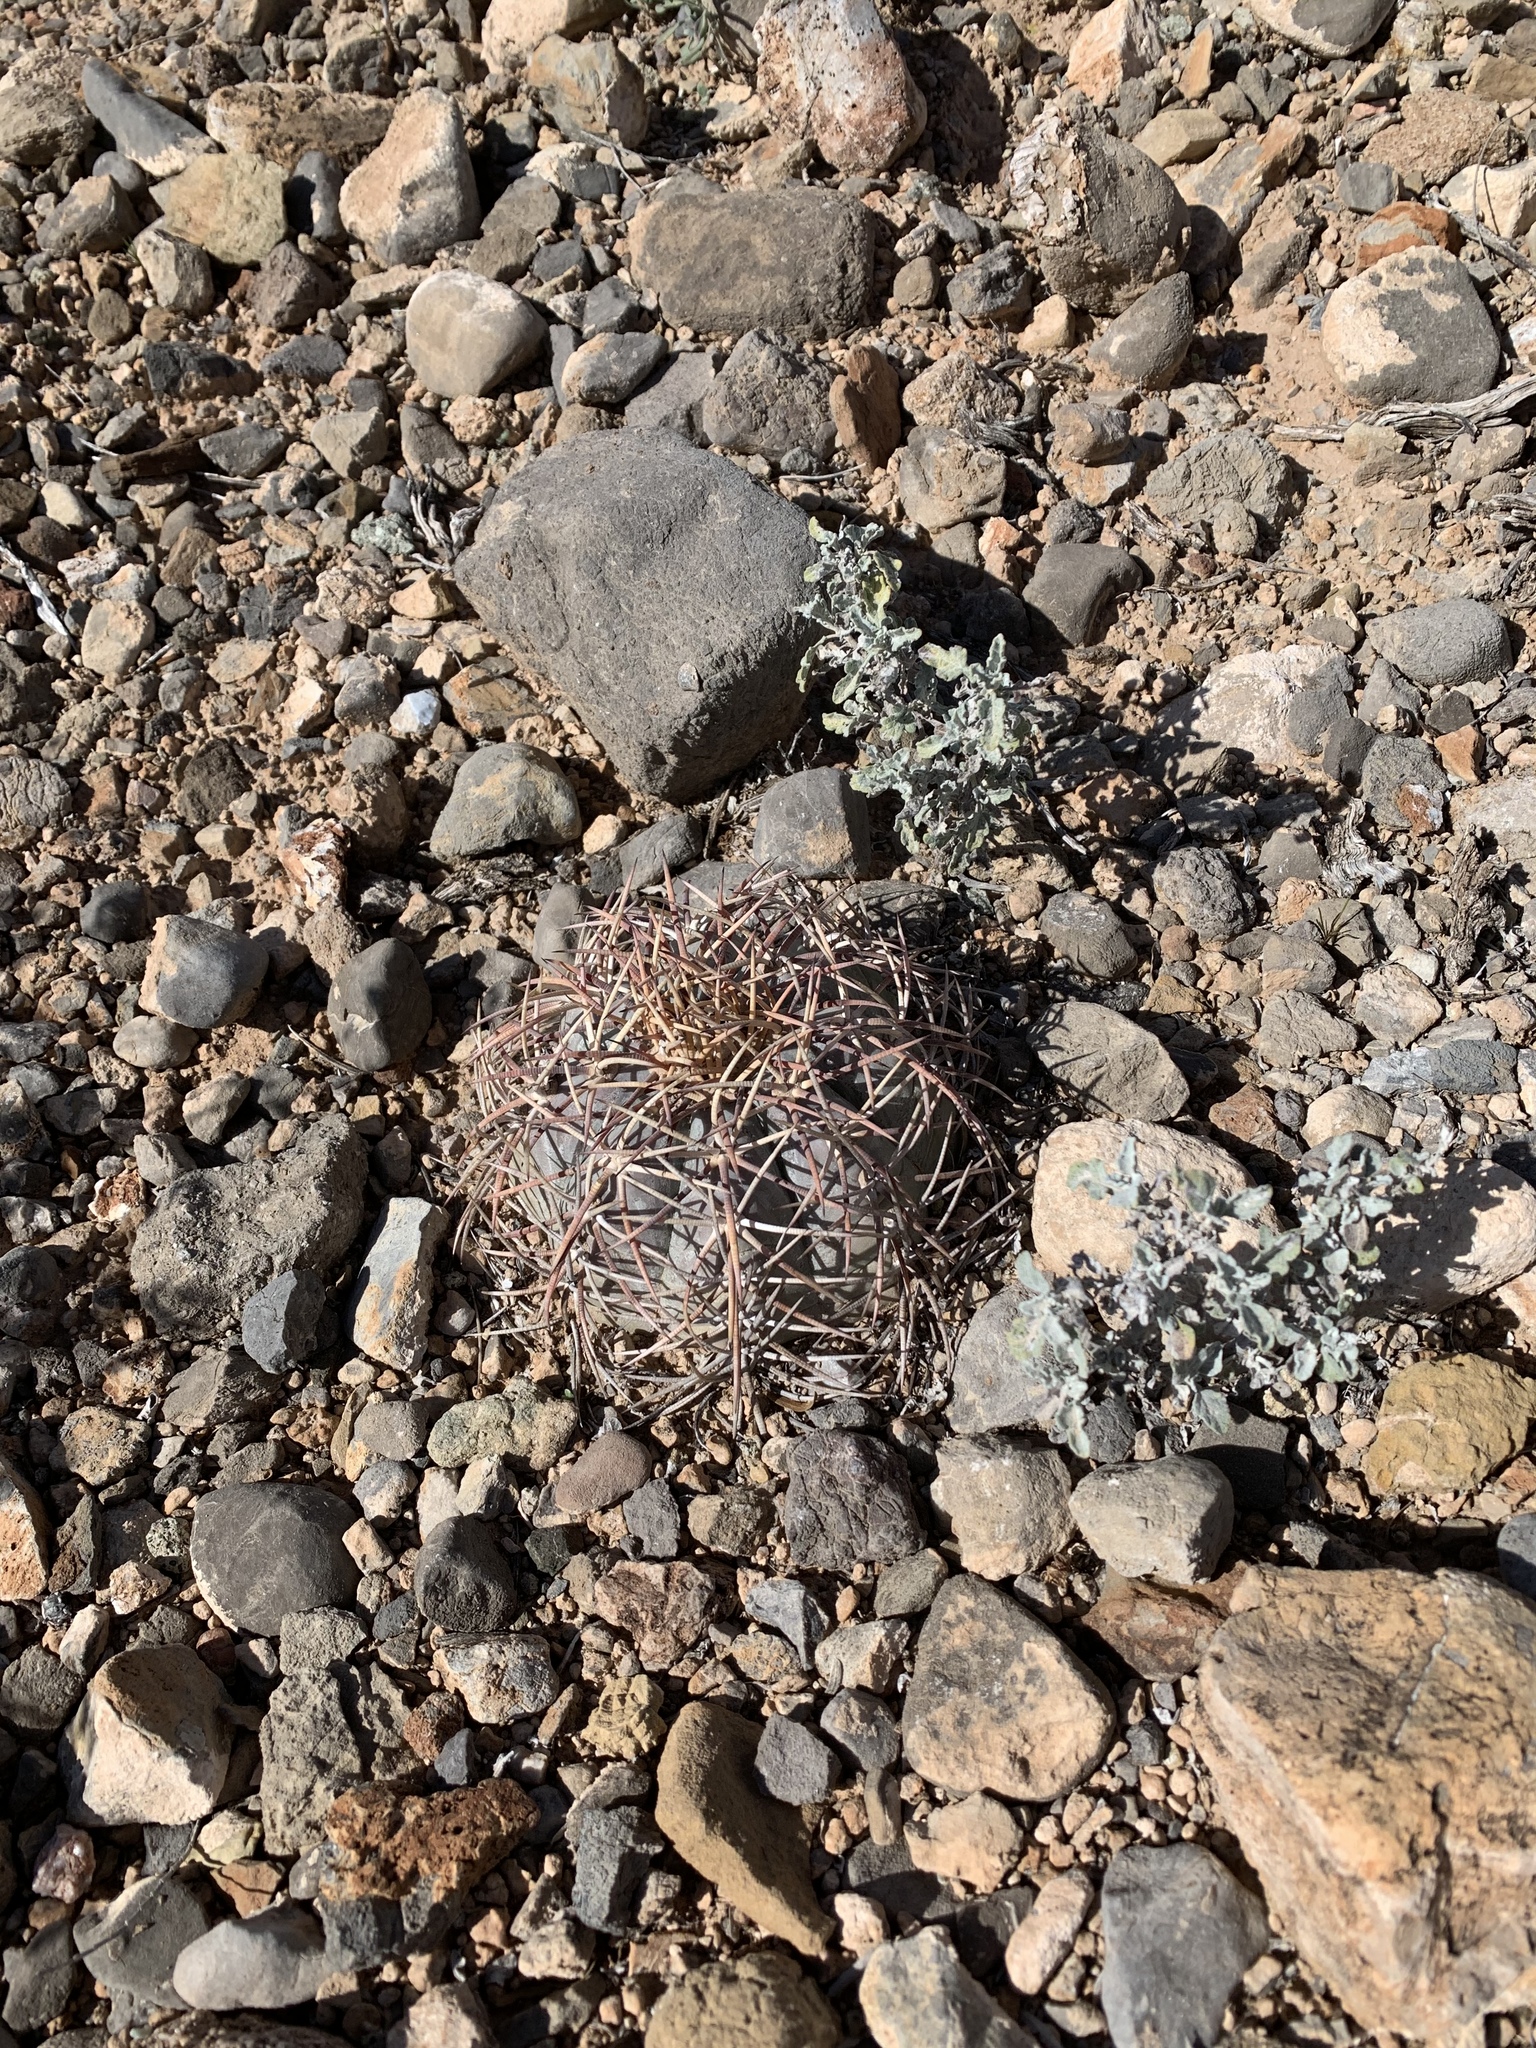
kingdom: Plantae
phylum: Tracheophyta
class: Magnoliopsida
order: Caryophyllales
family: Cactaceae
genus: Echinocactus
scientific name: Echinocactus horizonthalonius
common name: Devilshead
